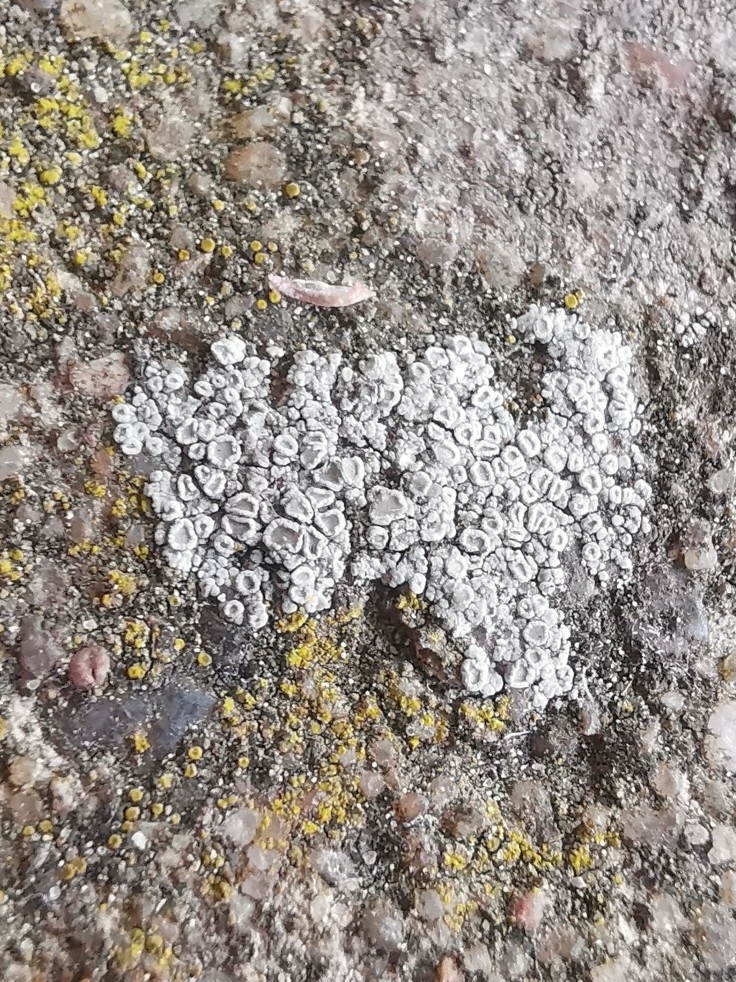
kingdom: Fungi
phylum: Ascomycota
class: Lecanoromycetes
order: Lecanorales
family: Lecanoraceae
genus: Polyozosia
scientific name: Polyozosia albescens
